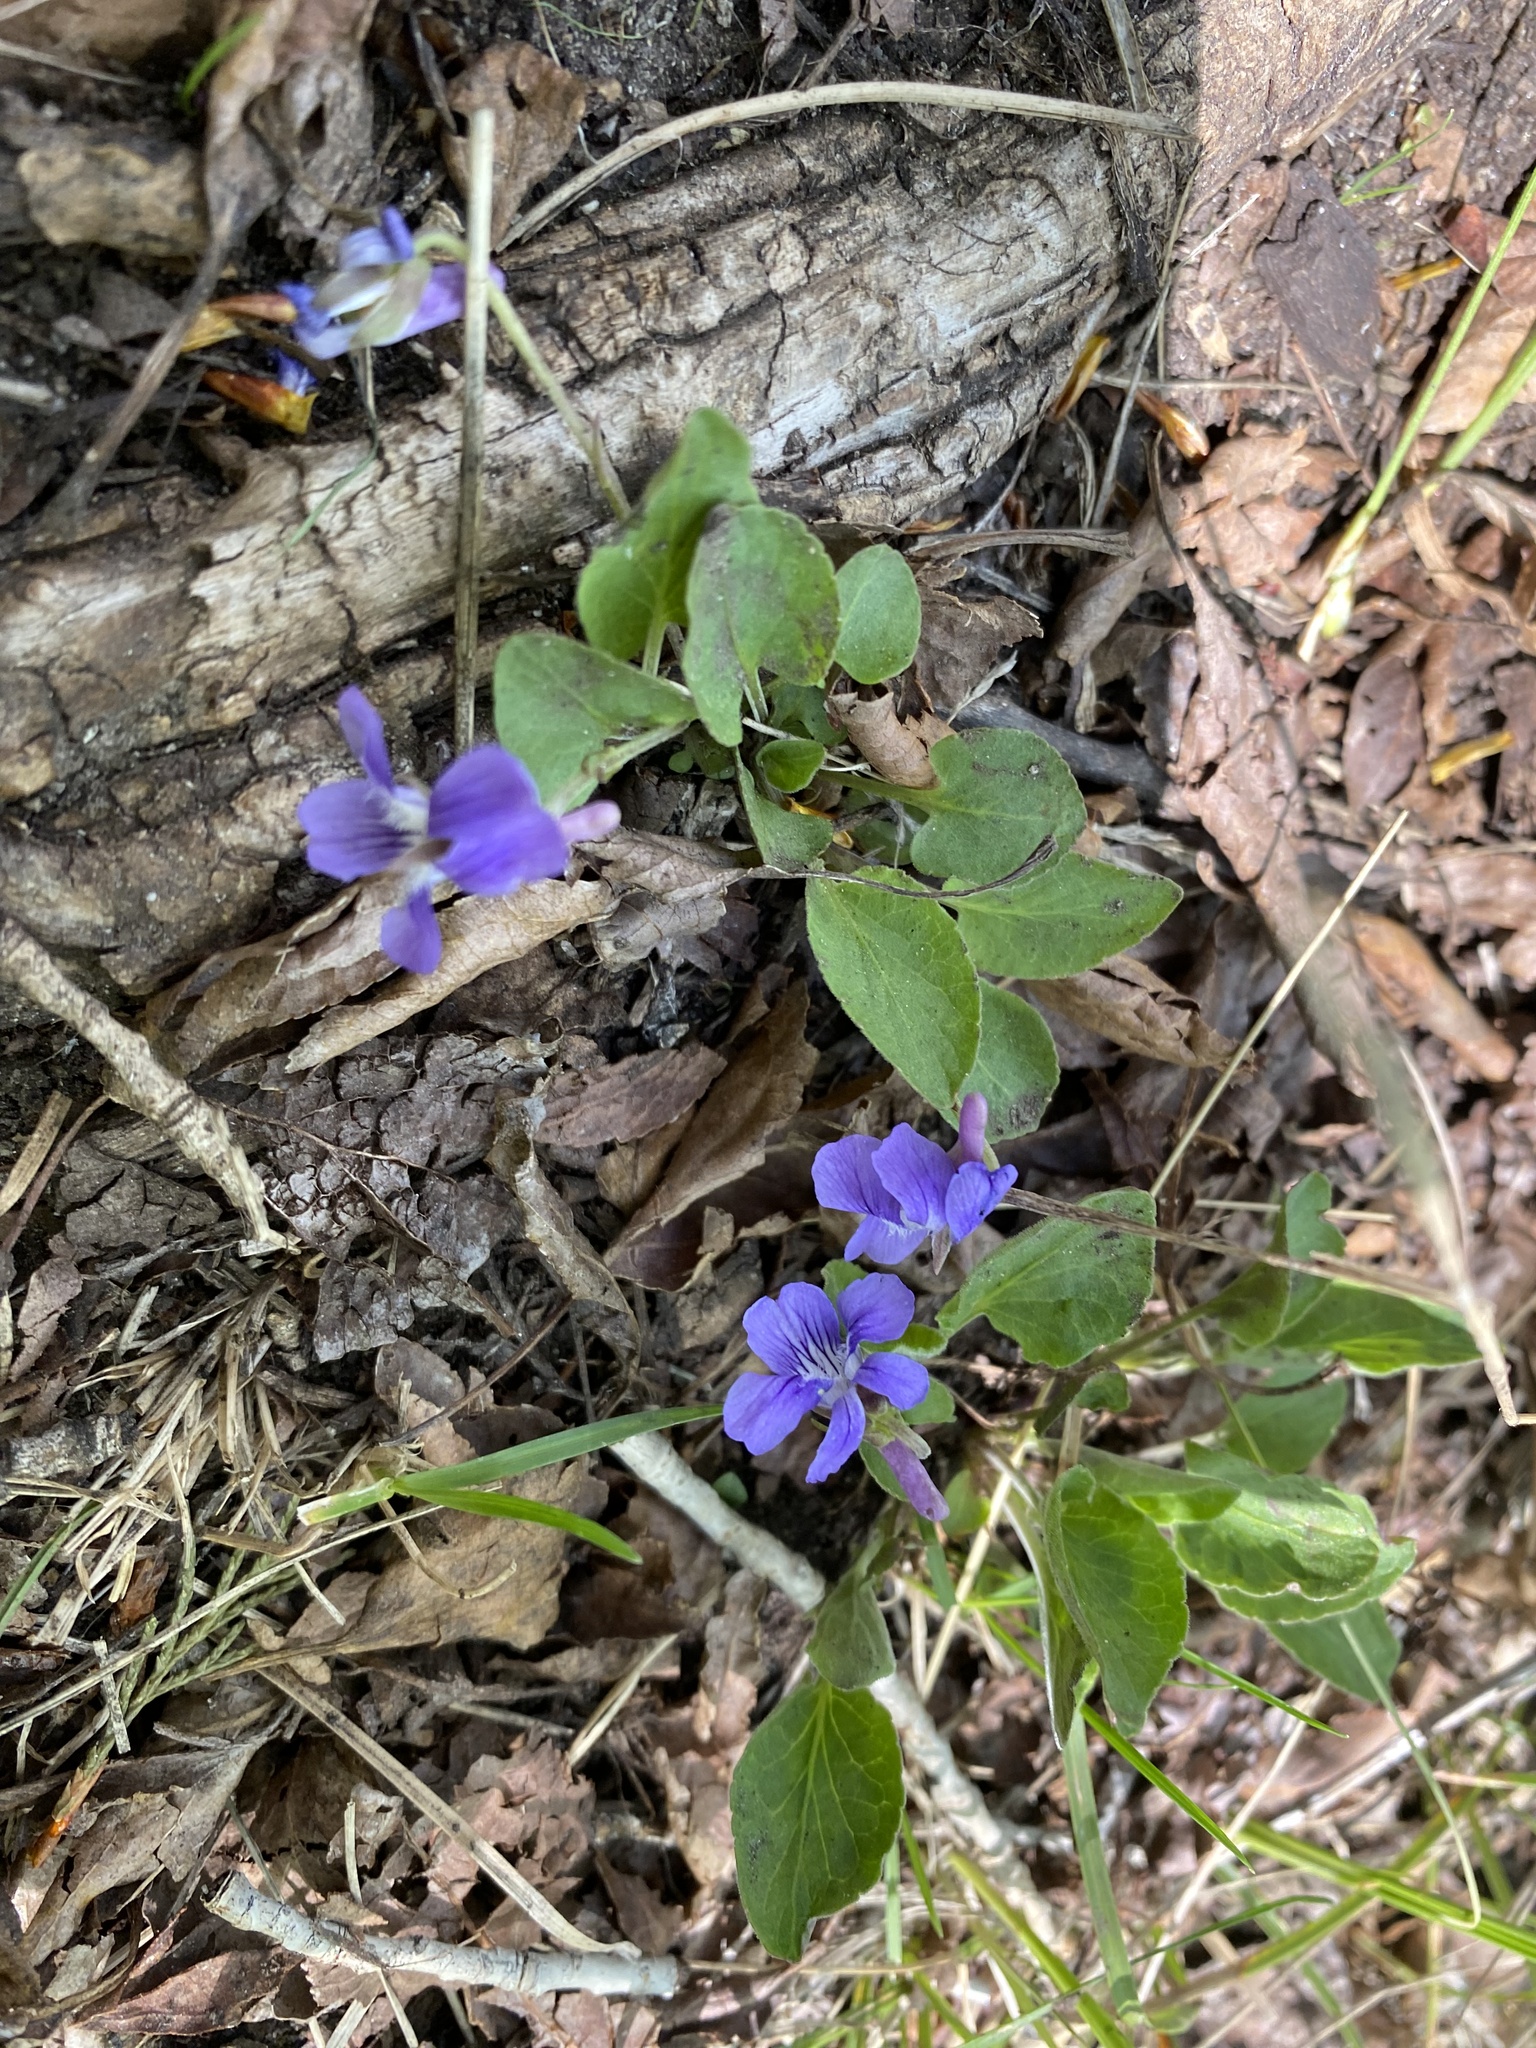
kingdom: Plantae
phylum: Tracheophyta
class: Magnoliopsida
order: Malpighiales
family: Violaceae
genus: Viola
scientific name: Viola adunca
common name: Sand violet
